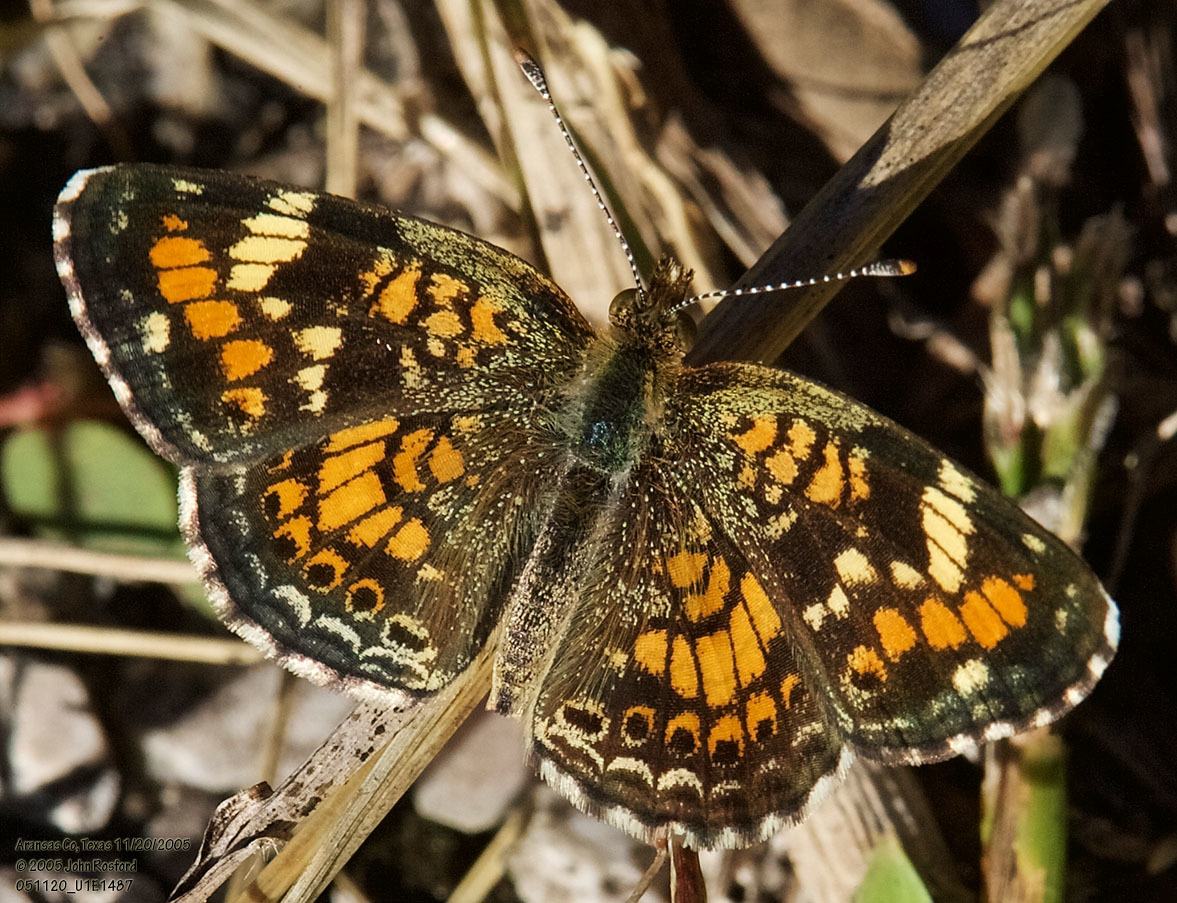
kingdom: Animalia
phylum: Arthropoda
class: Insecta
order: Lepidoptera
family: Nymphalidae
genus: Phyciodes
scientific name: Phyciodes phaon
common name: Phaon crescent
